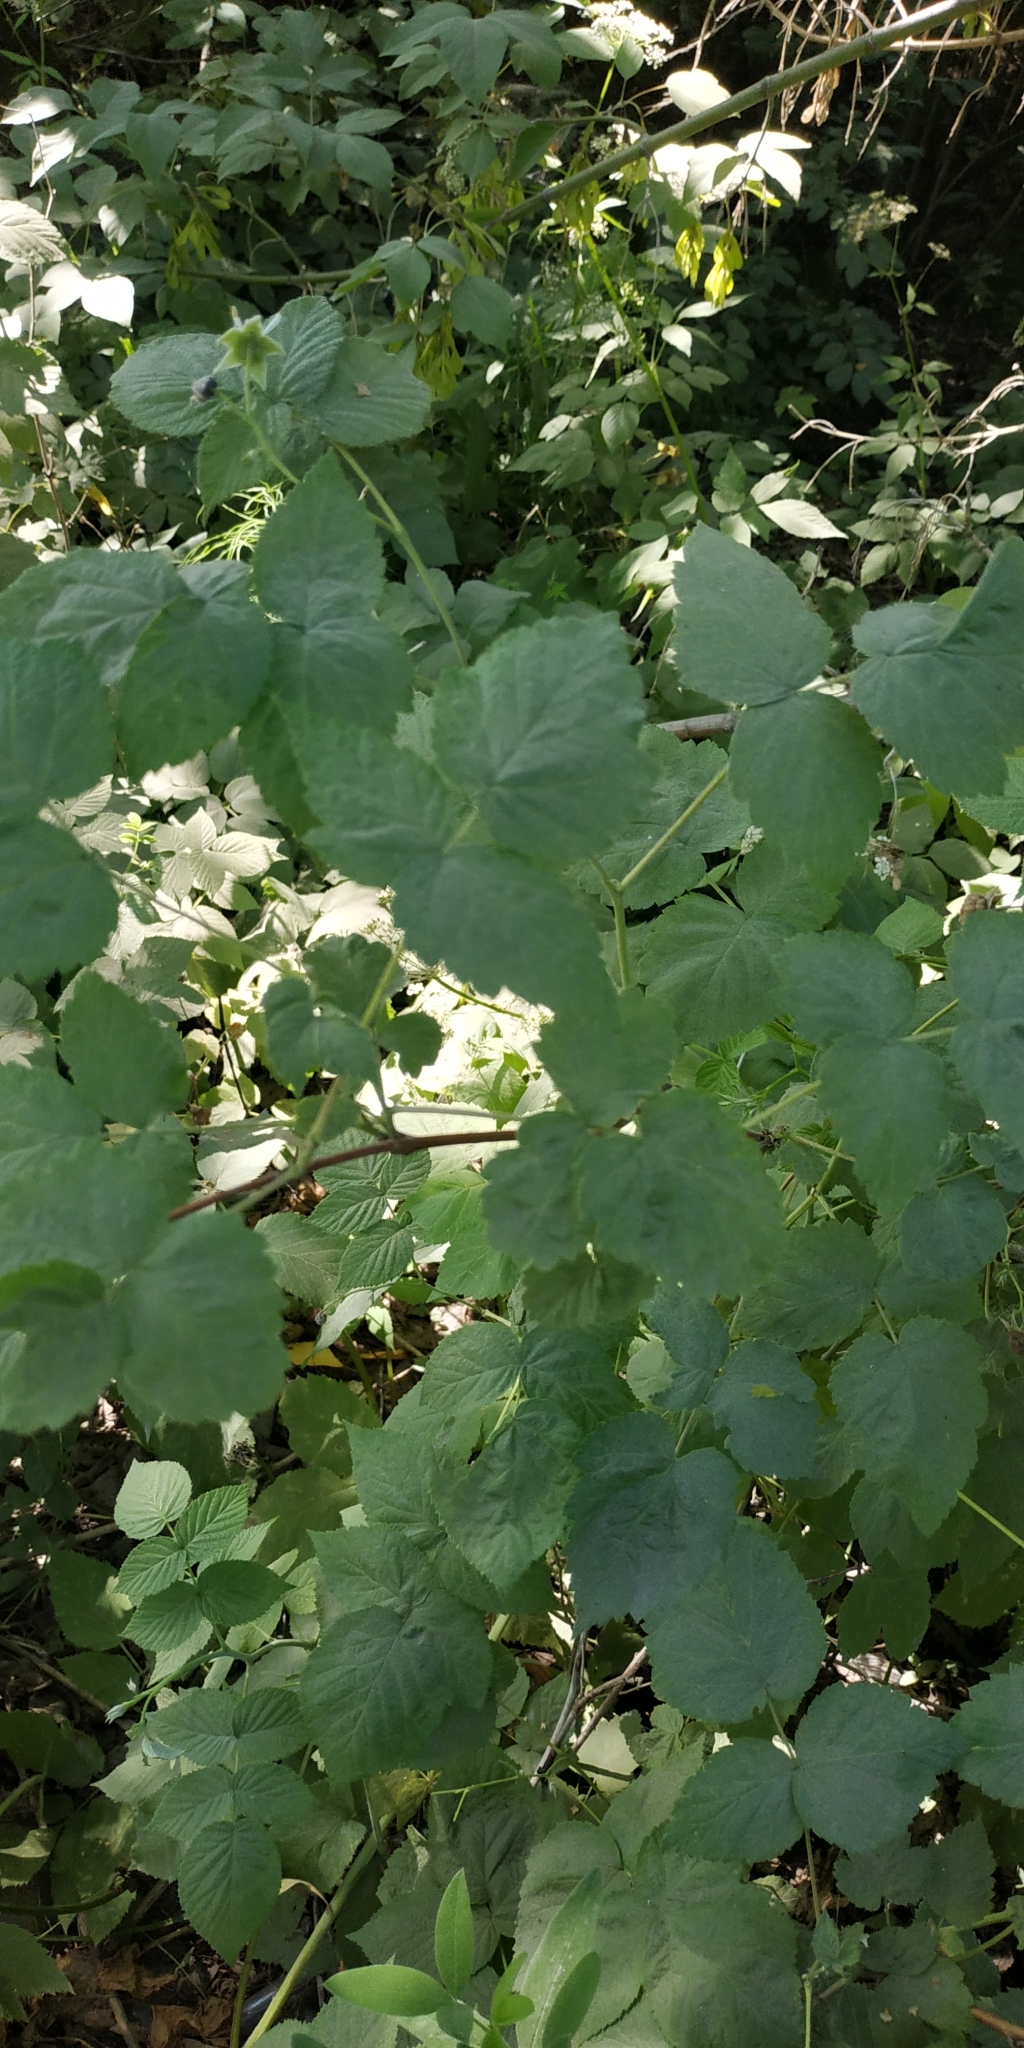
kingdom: Plantae
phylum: Tracheophyta
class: Magnoliopsida
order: Rosales
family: Rosaceae
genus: Rubus
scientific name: Rubus idaeus
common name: Raspberry
